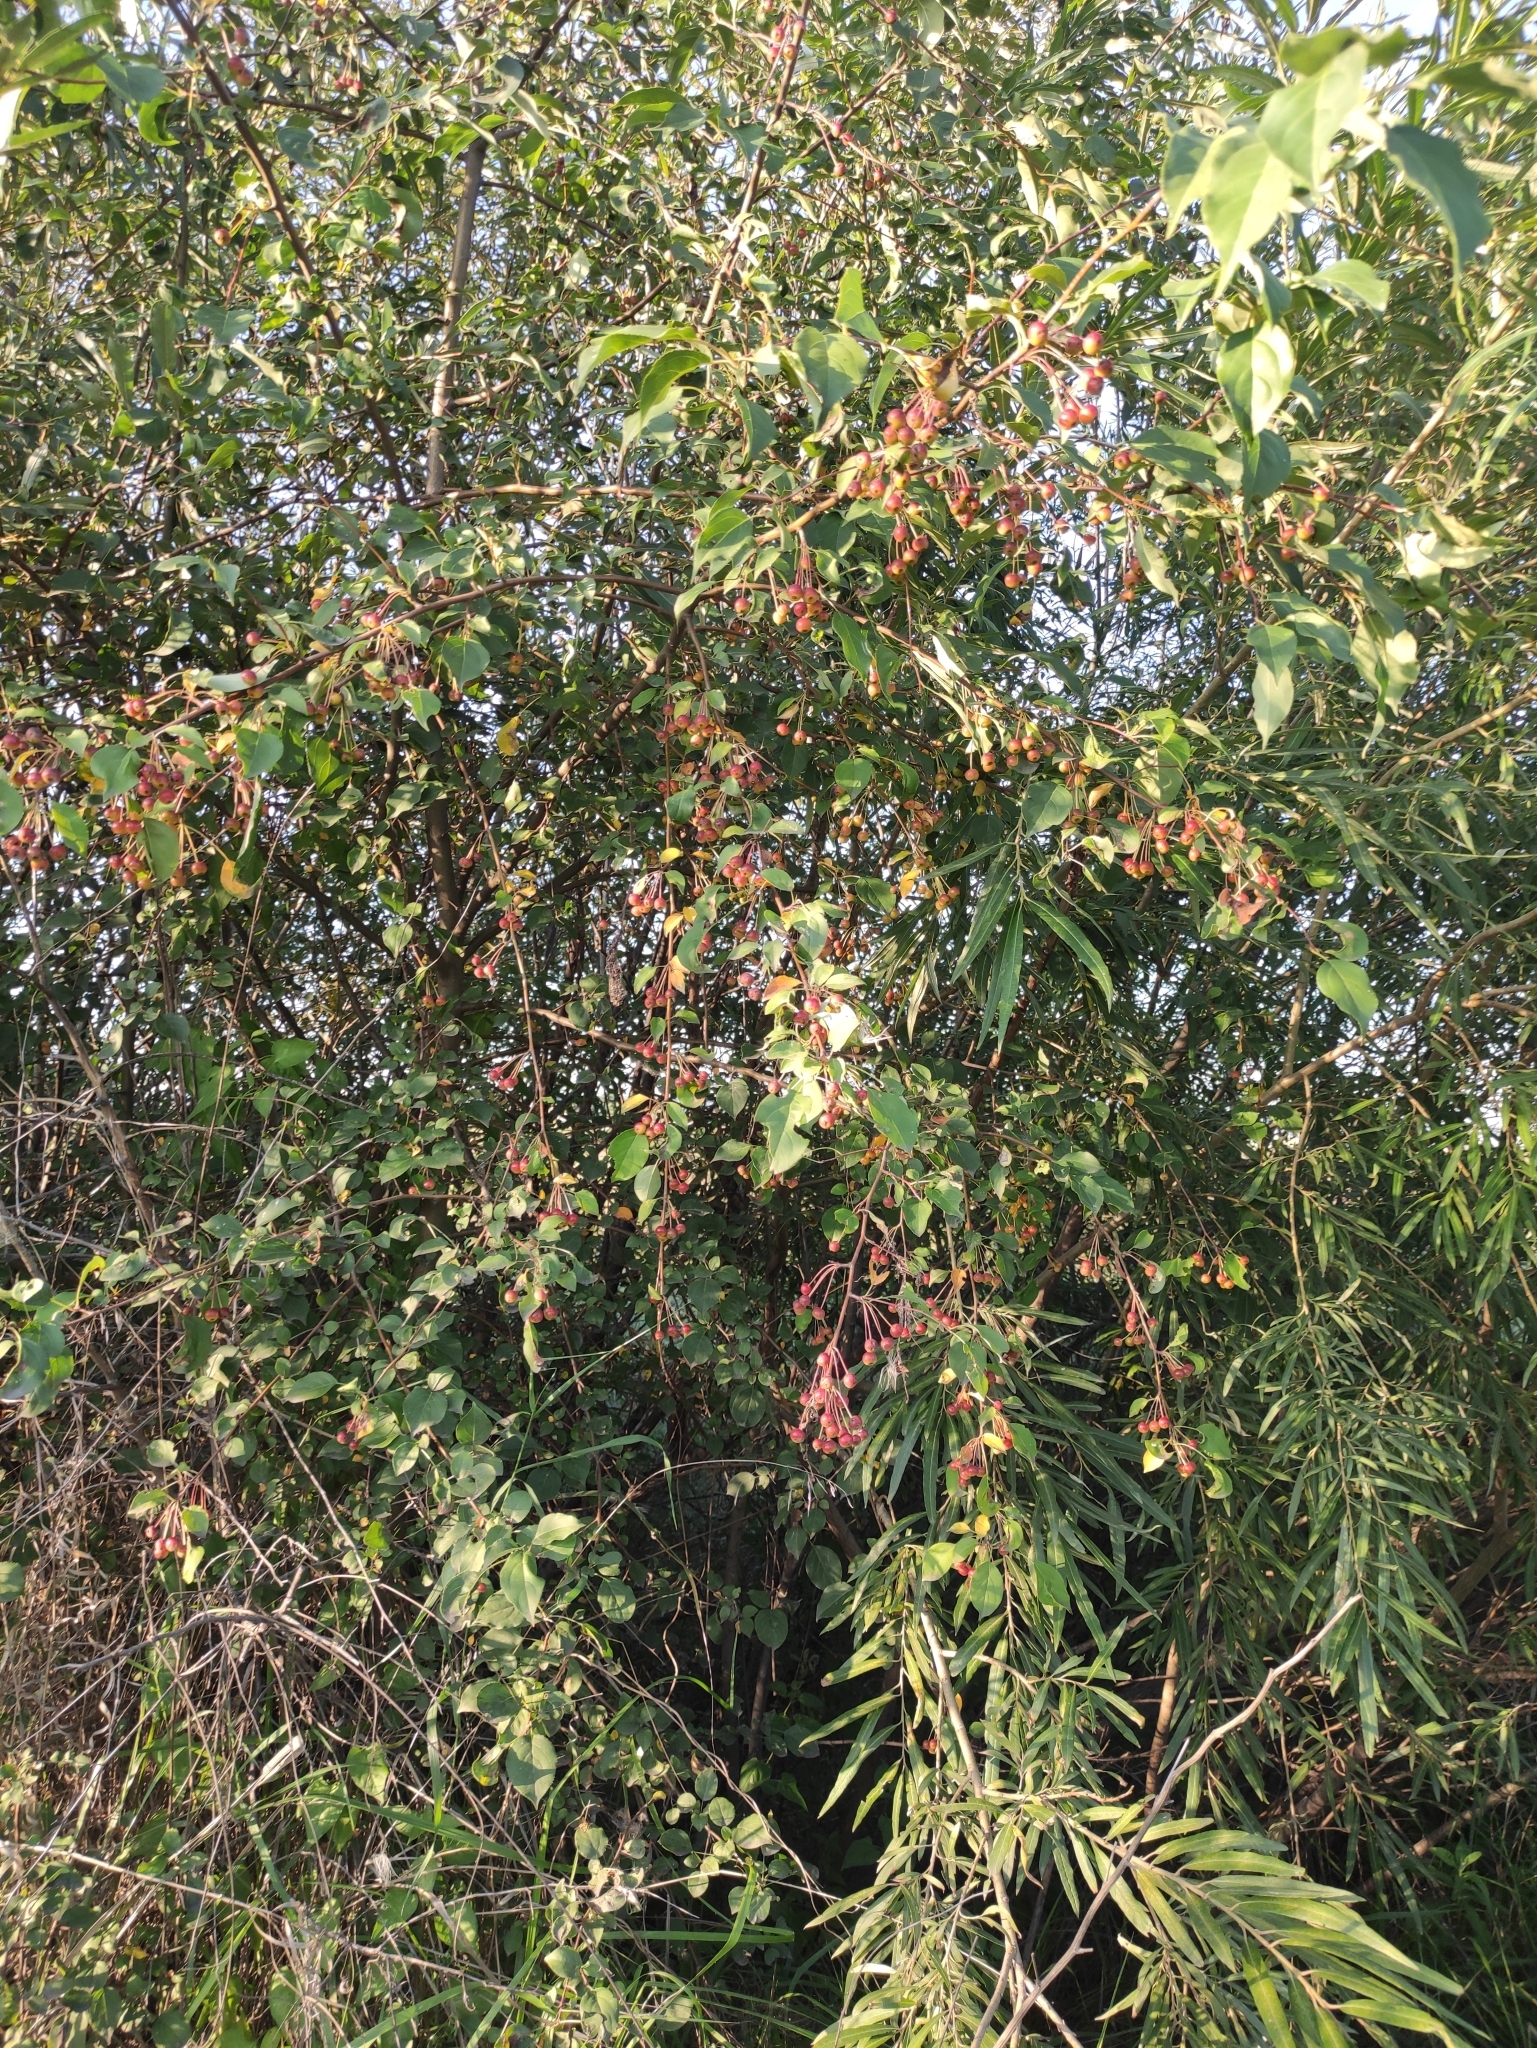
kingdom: Plantae
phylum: Tracheophyta
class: Magnoliopsida
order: Rosales
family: Rosaceae
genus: Malus
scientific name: Malus baccata
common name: Siberian crab
